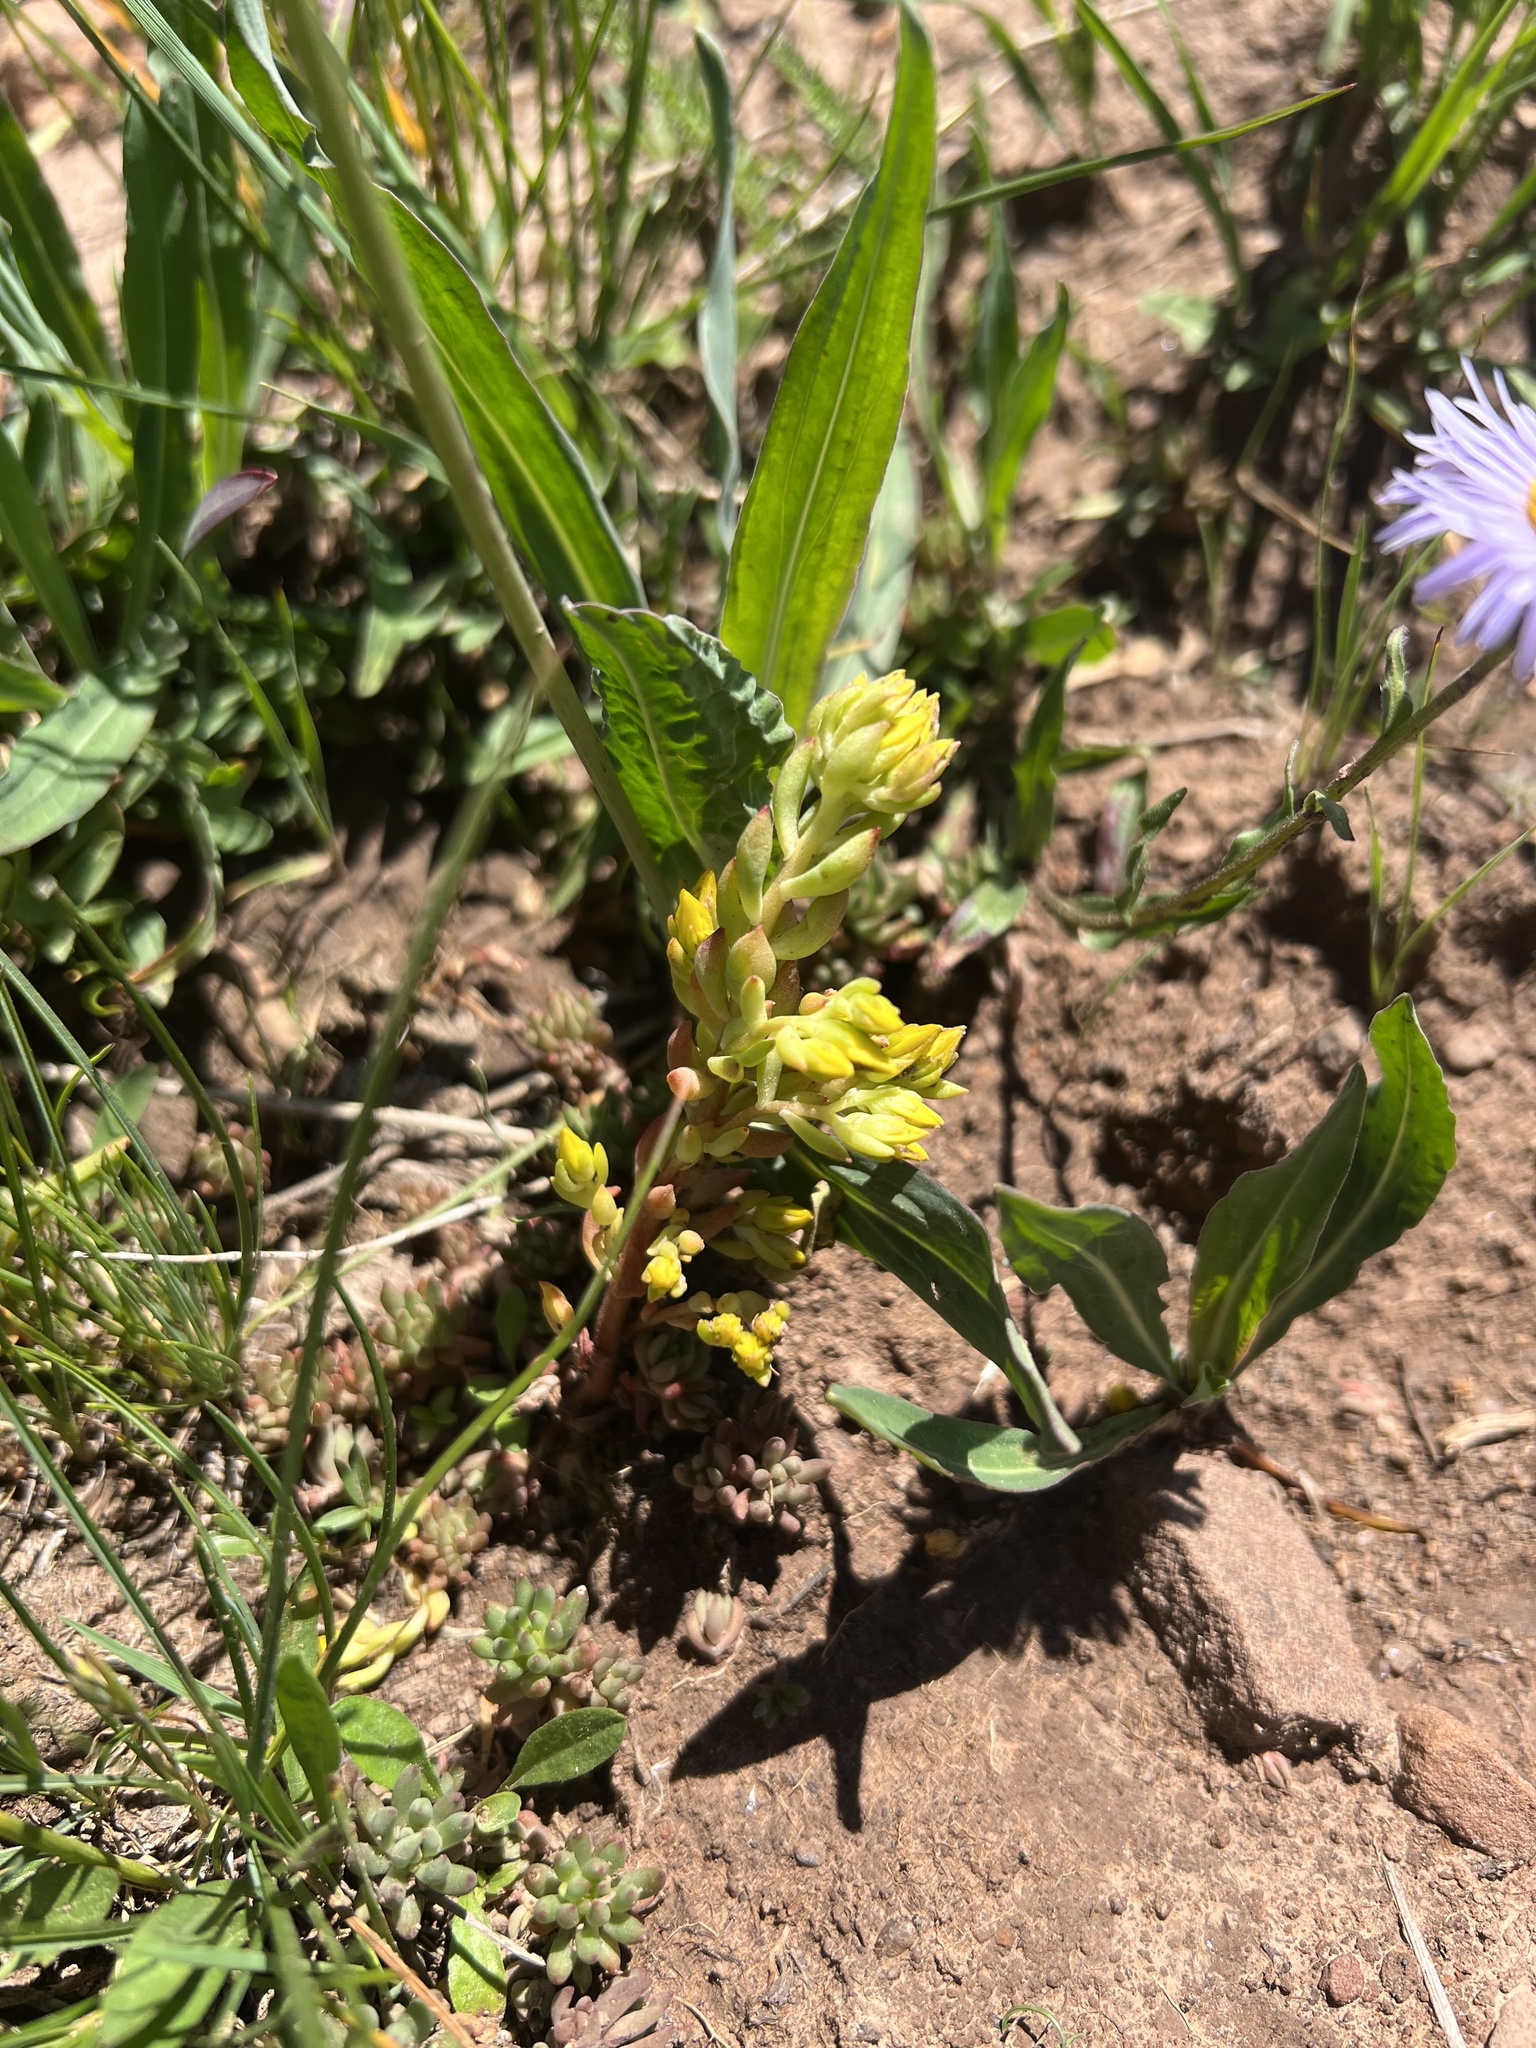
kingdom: Plantae
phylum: Tracheophyta
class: Magnoliopsida
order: Saxifragales
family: Crassulaceae
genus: Sedum
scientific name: Sedum lanceolatum
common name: Common stonecrop
